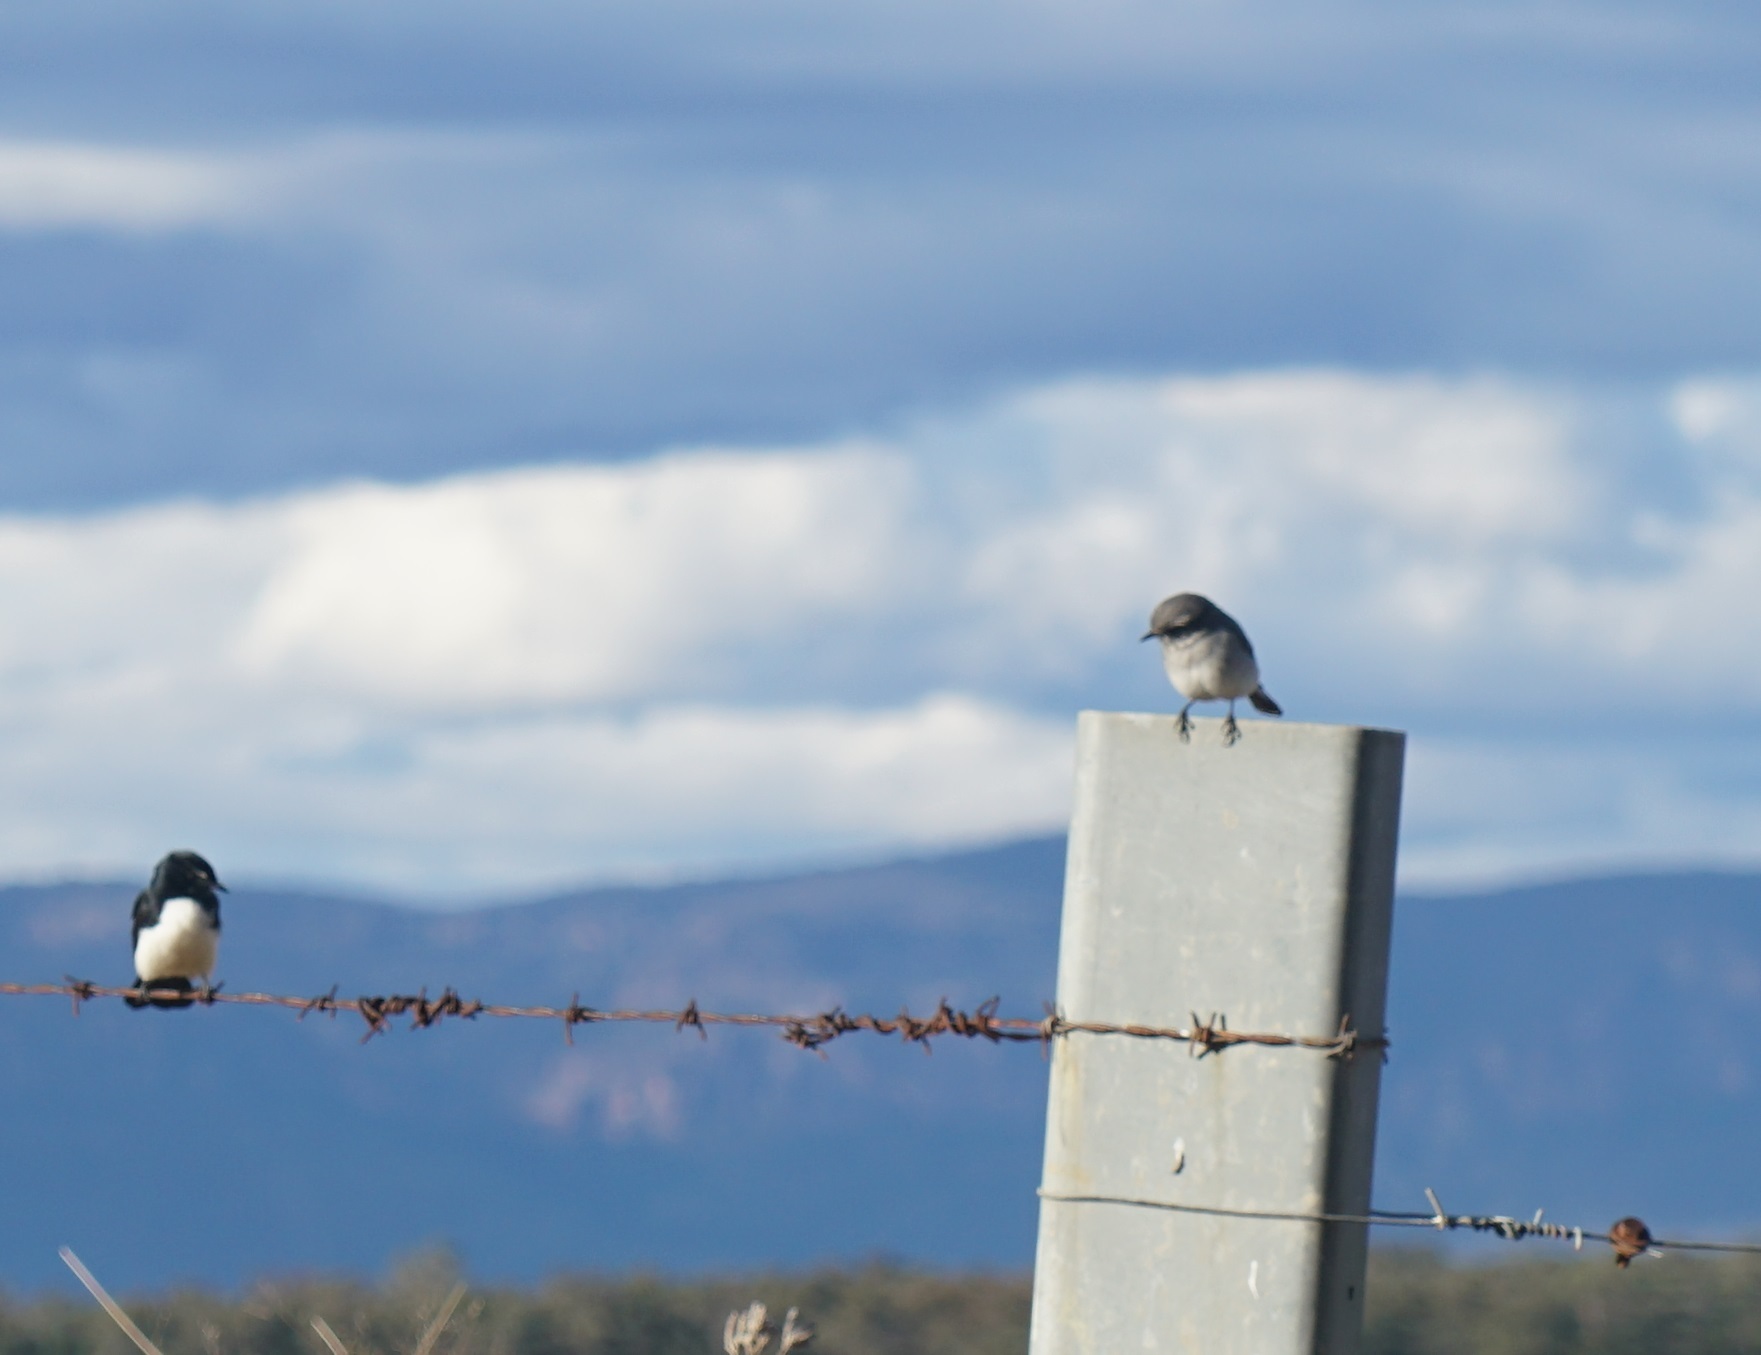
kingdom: Animalia
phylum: Chordata
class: Aves
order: Passeriformes
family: Petroicidae
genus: Microeca
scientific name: Microeca fascinans
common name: Jacky winter
